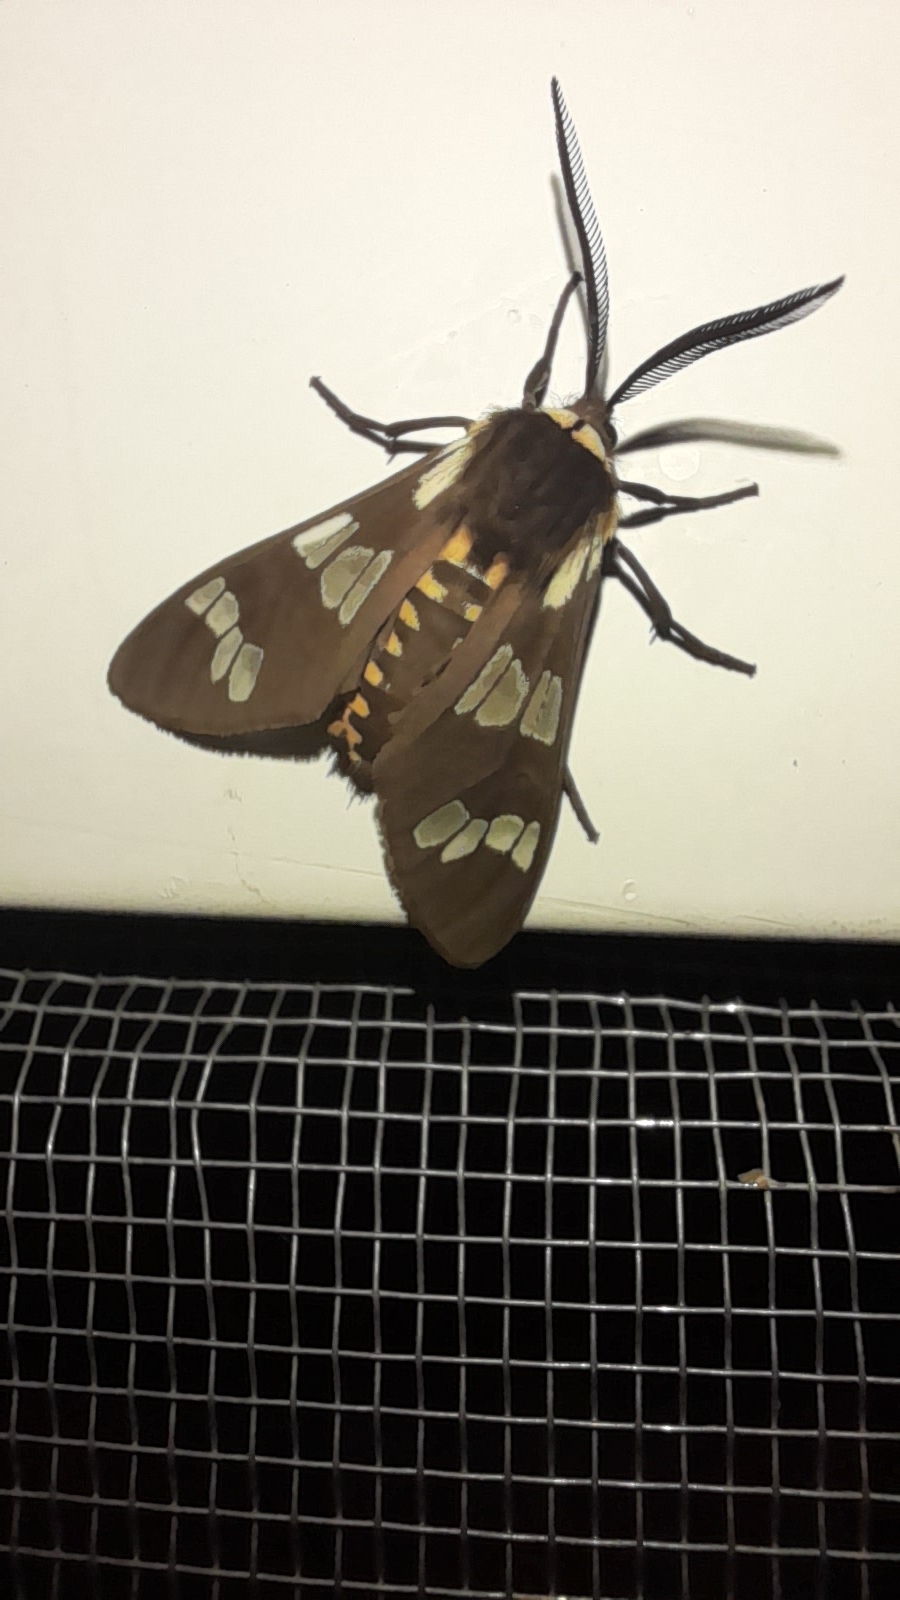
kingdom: Animalia
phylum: Arthropoda
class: Insecta
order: Lepidoptera
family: Erebidae
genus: Eurata
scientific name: Eurata
